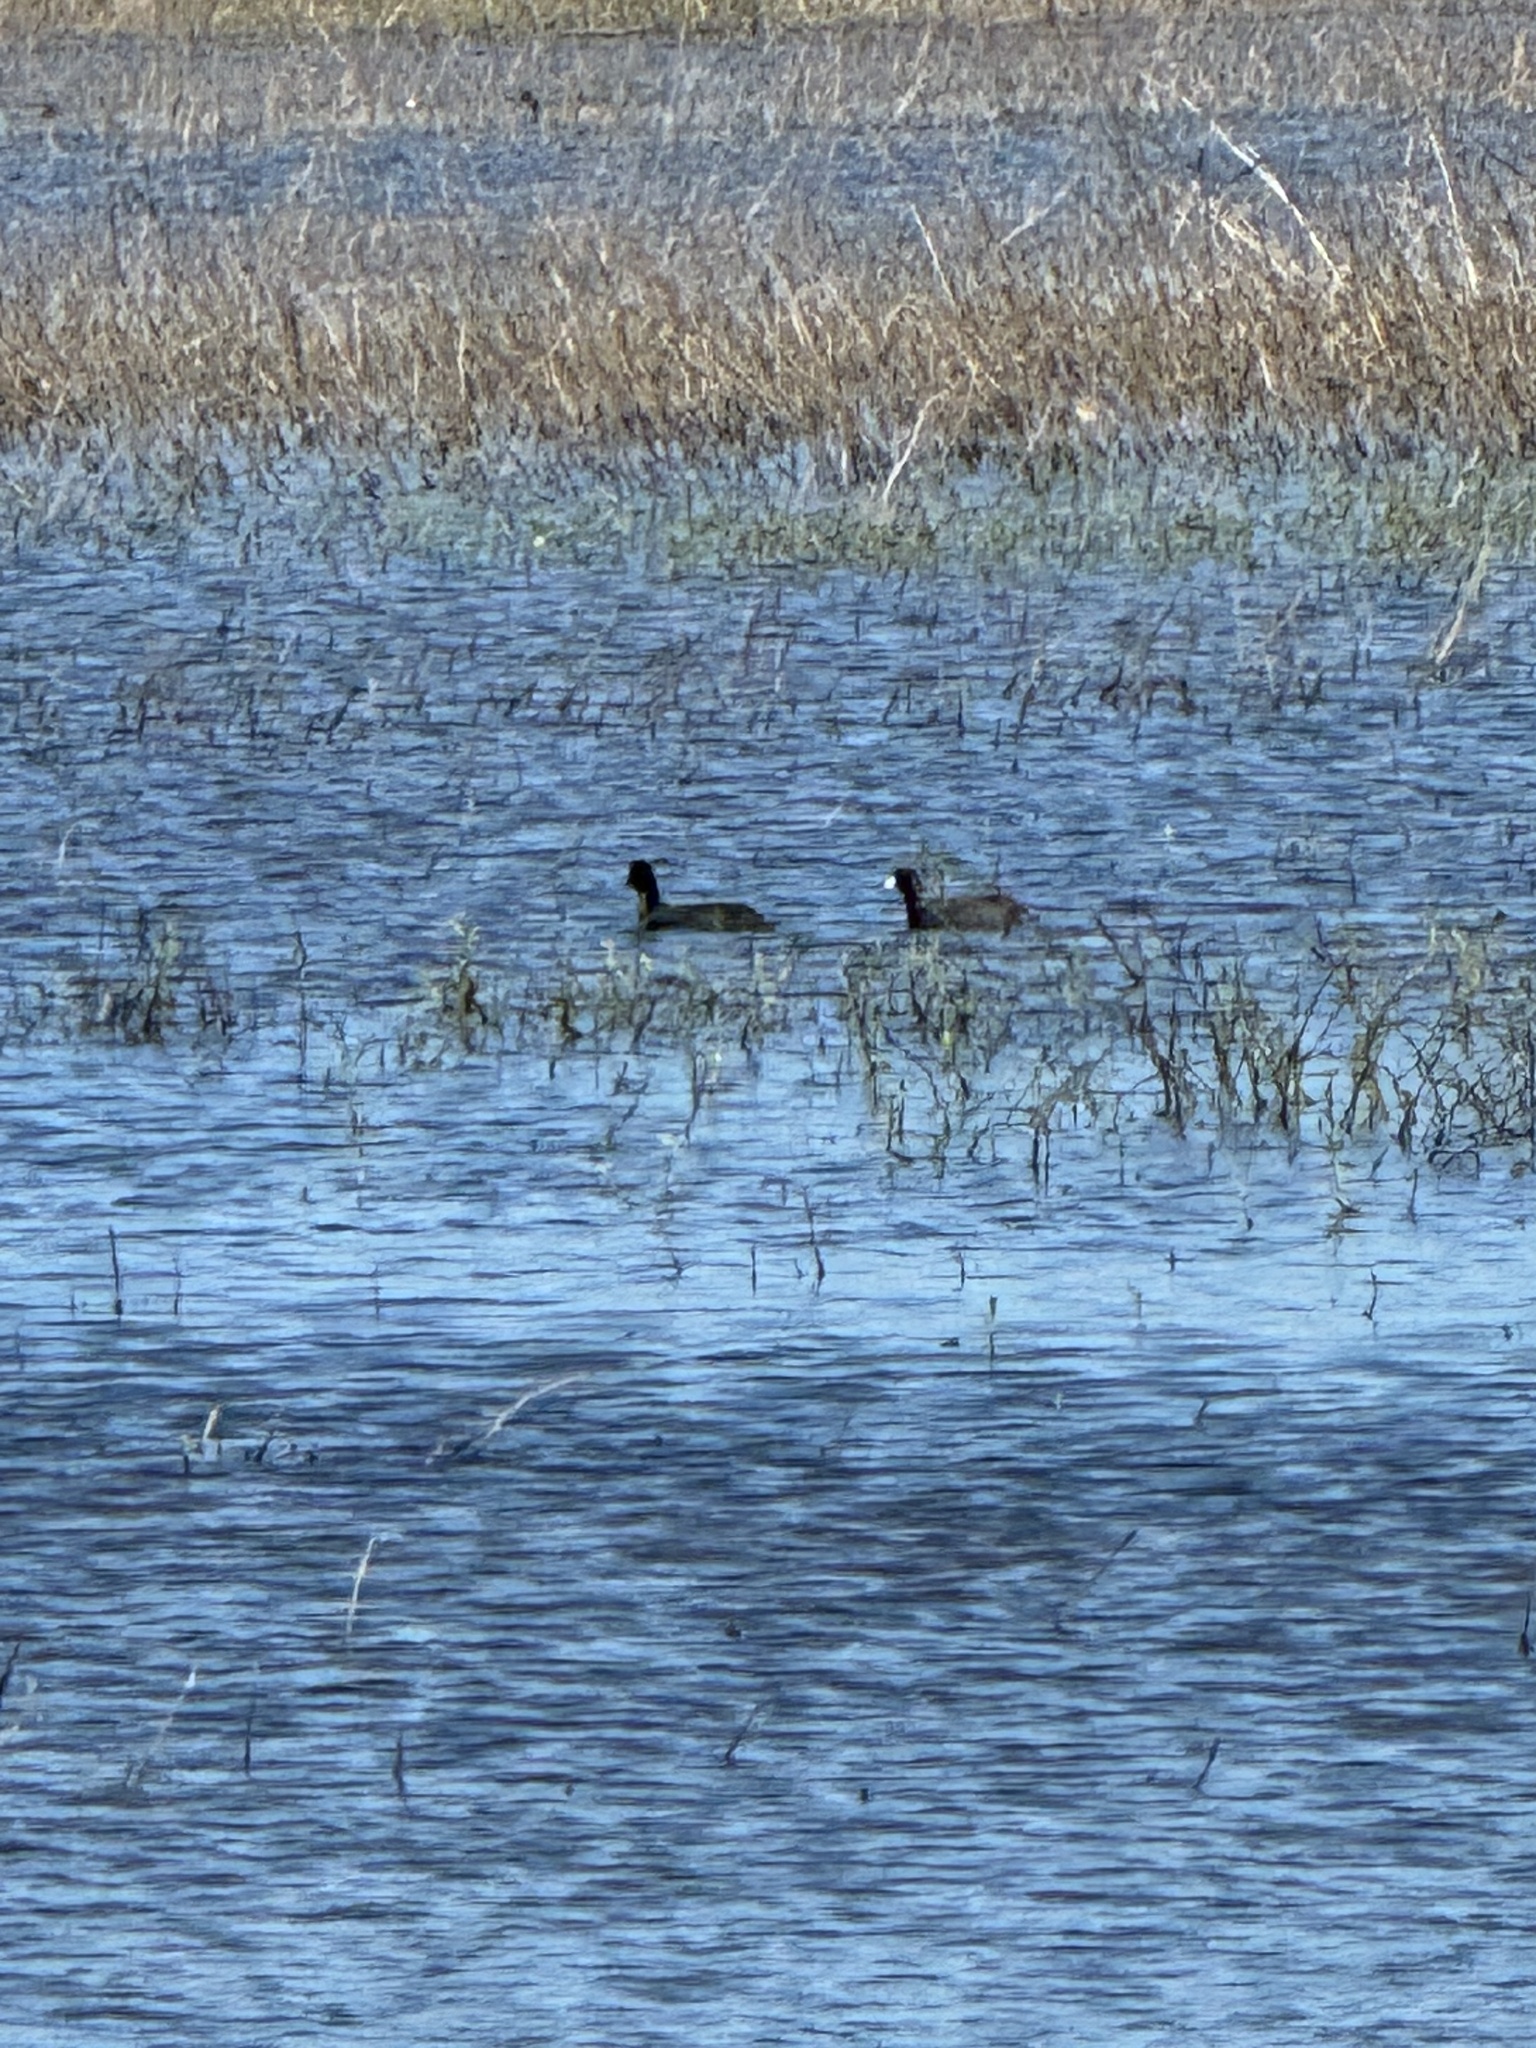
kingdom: Animalia
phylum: Chordata
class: Aves
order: Gruiformes
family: Rallidae
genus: Fulica
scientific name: Fulica americana
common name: American coot
